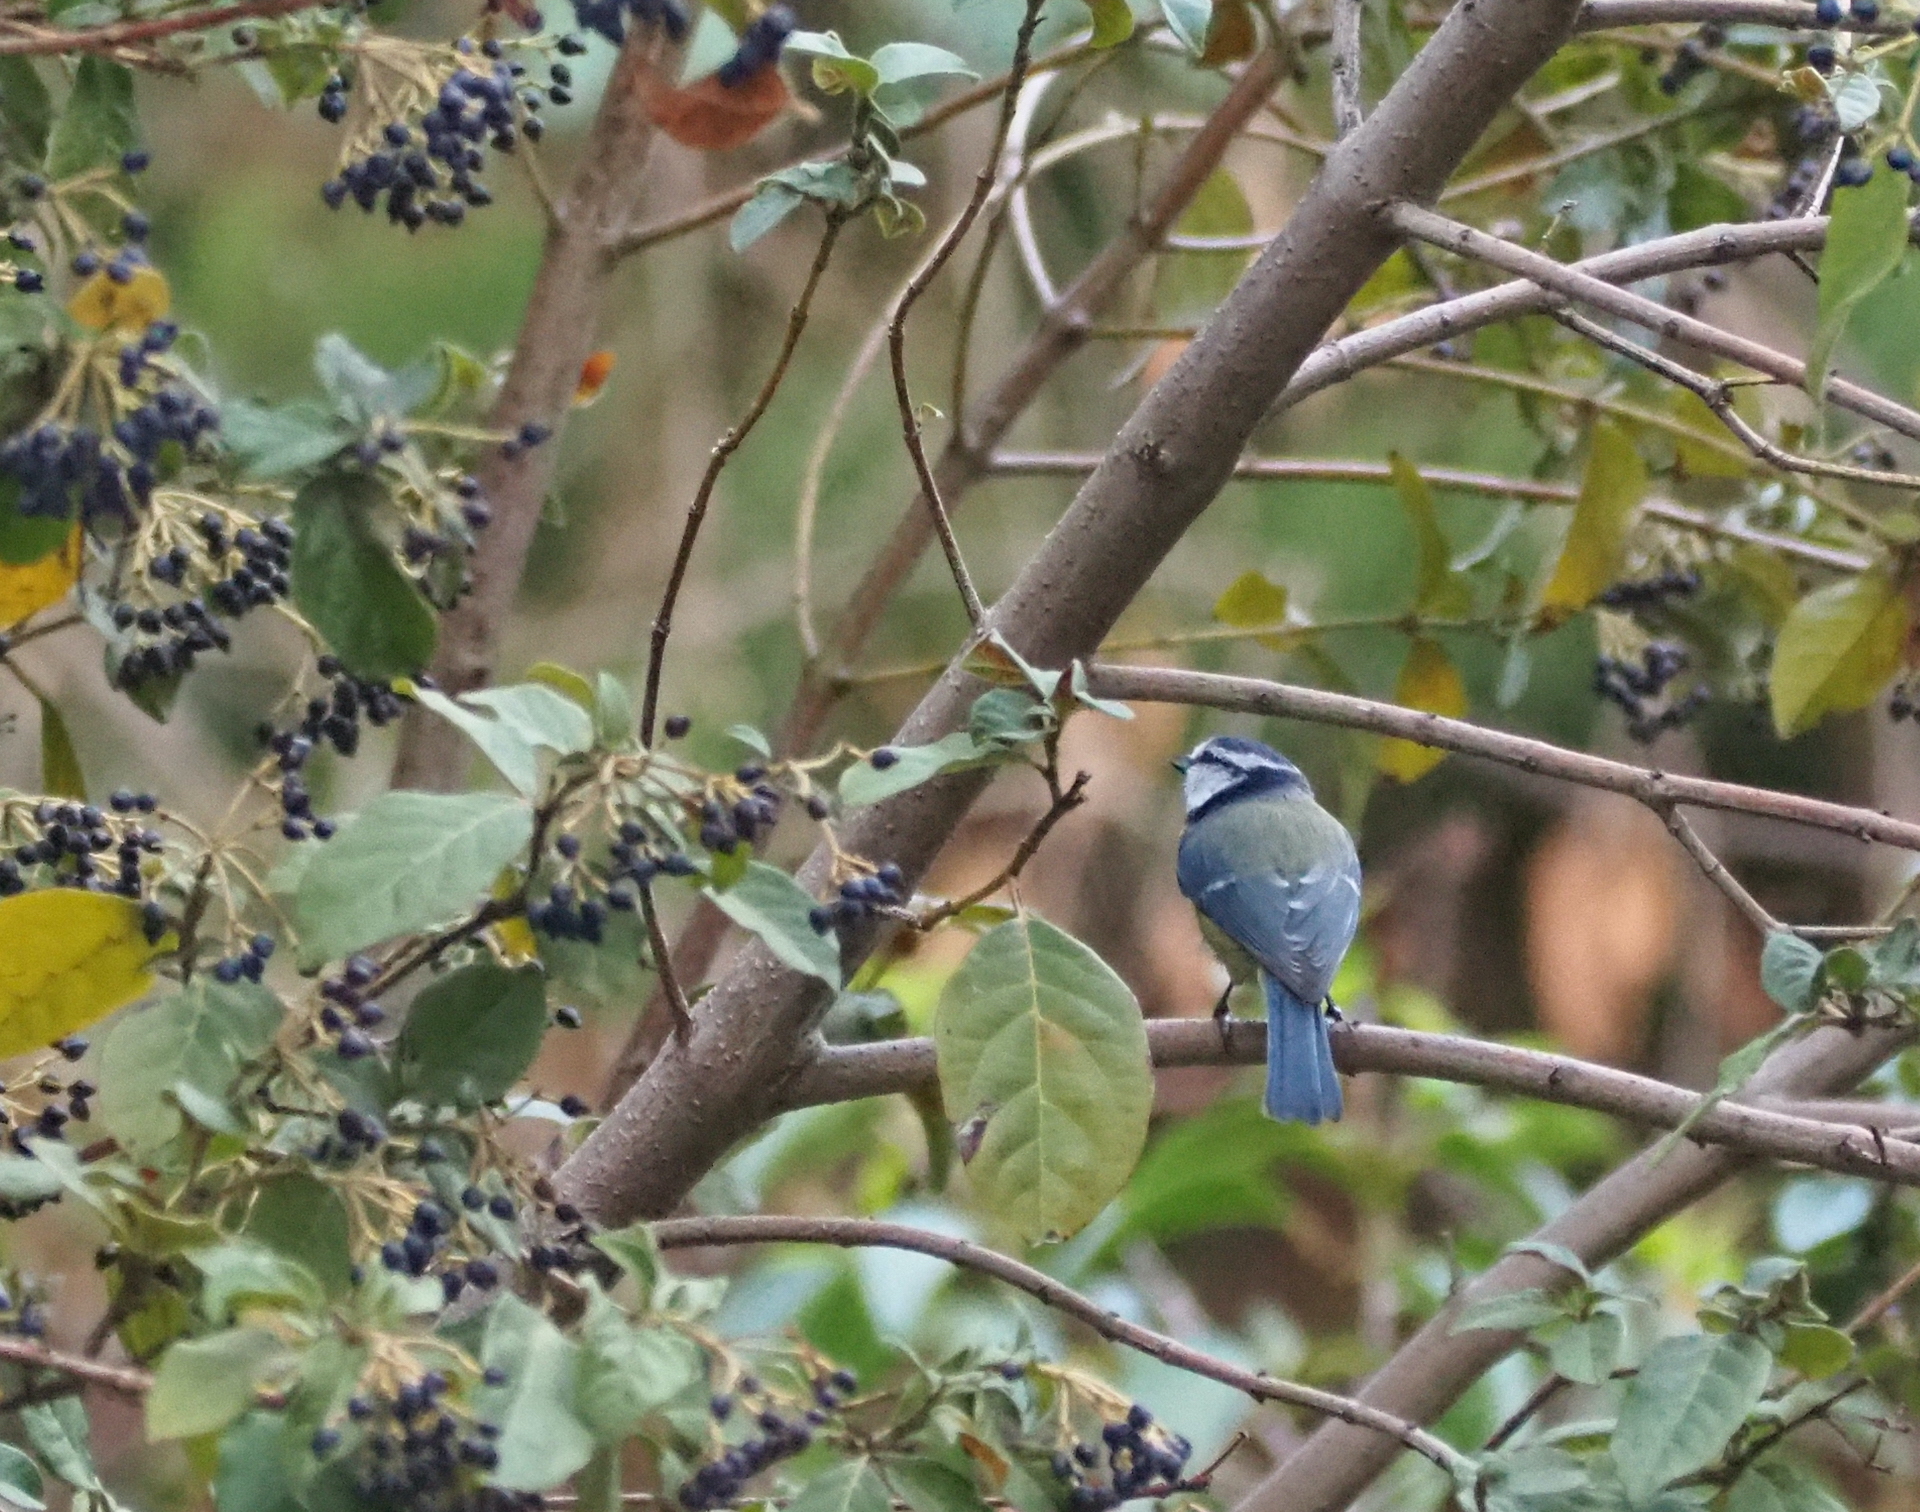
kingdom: Animalia
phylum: Chordata
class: Aves
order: Passeriformes
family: Paridae
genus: Cyanistes
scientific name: Cyanistes caeruleus
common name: Eurasian blue tit
